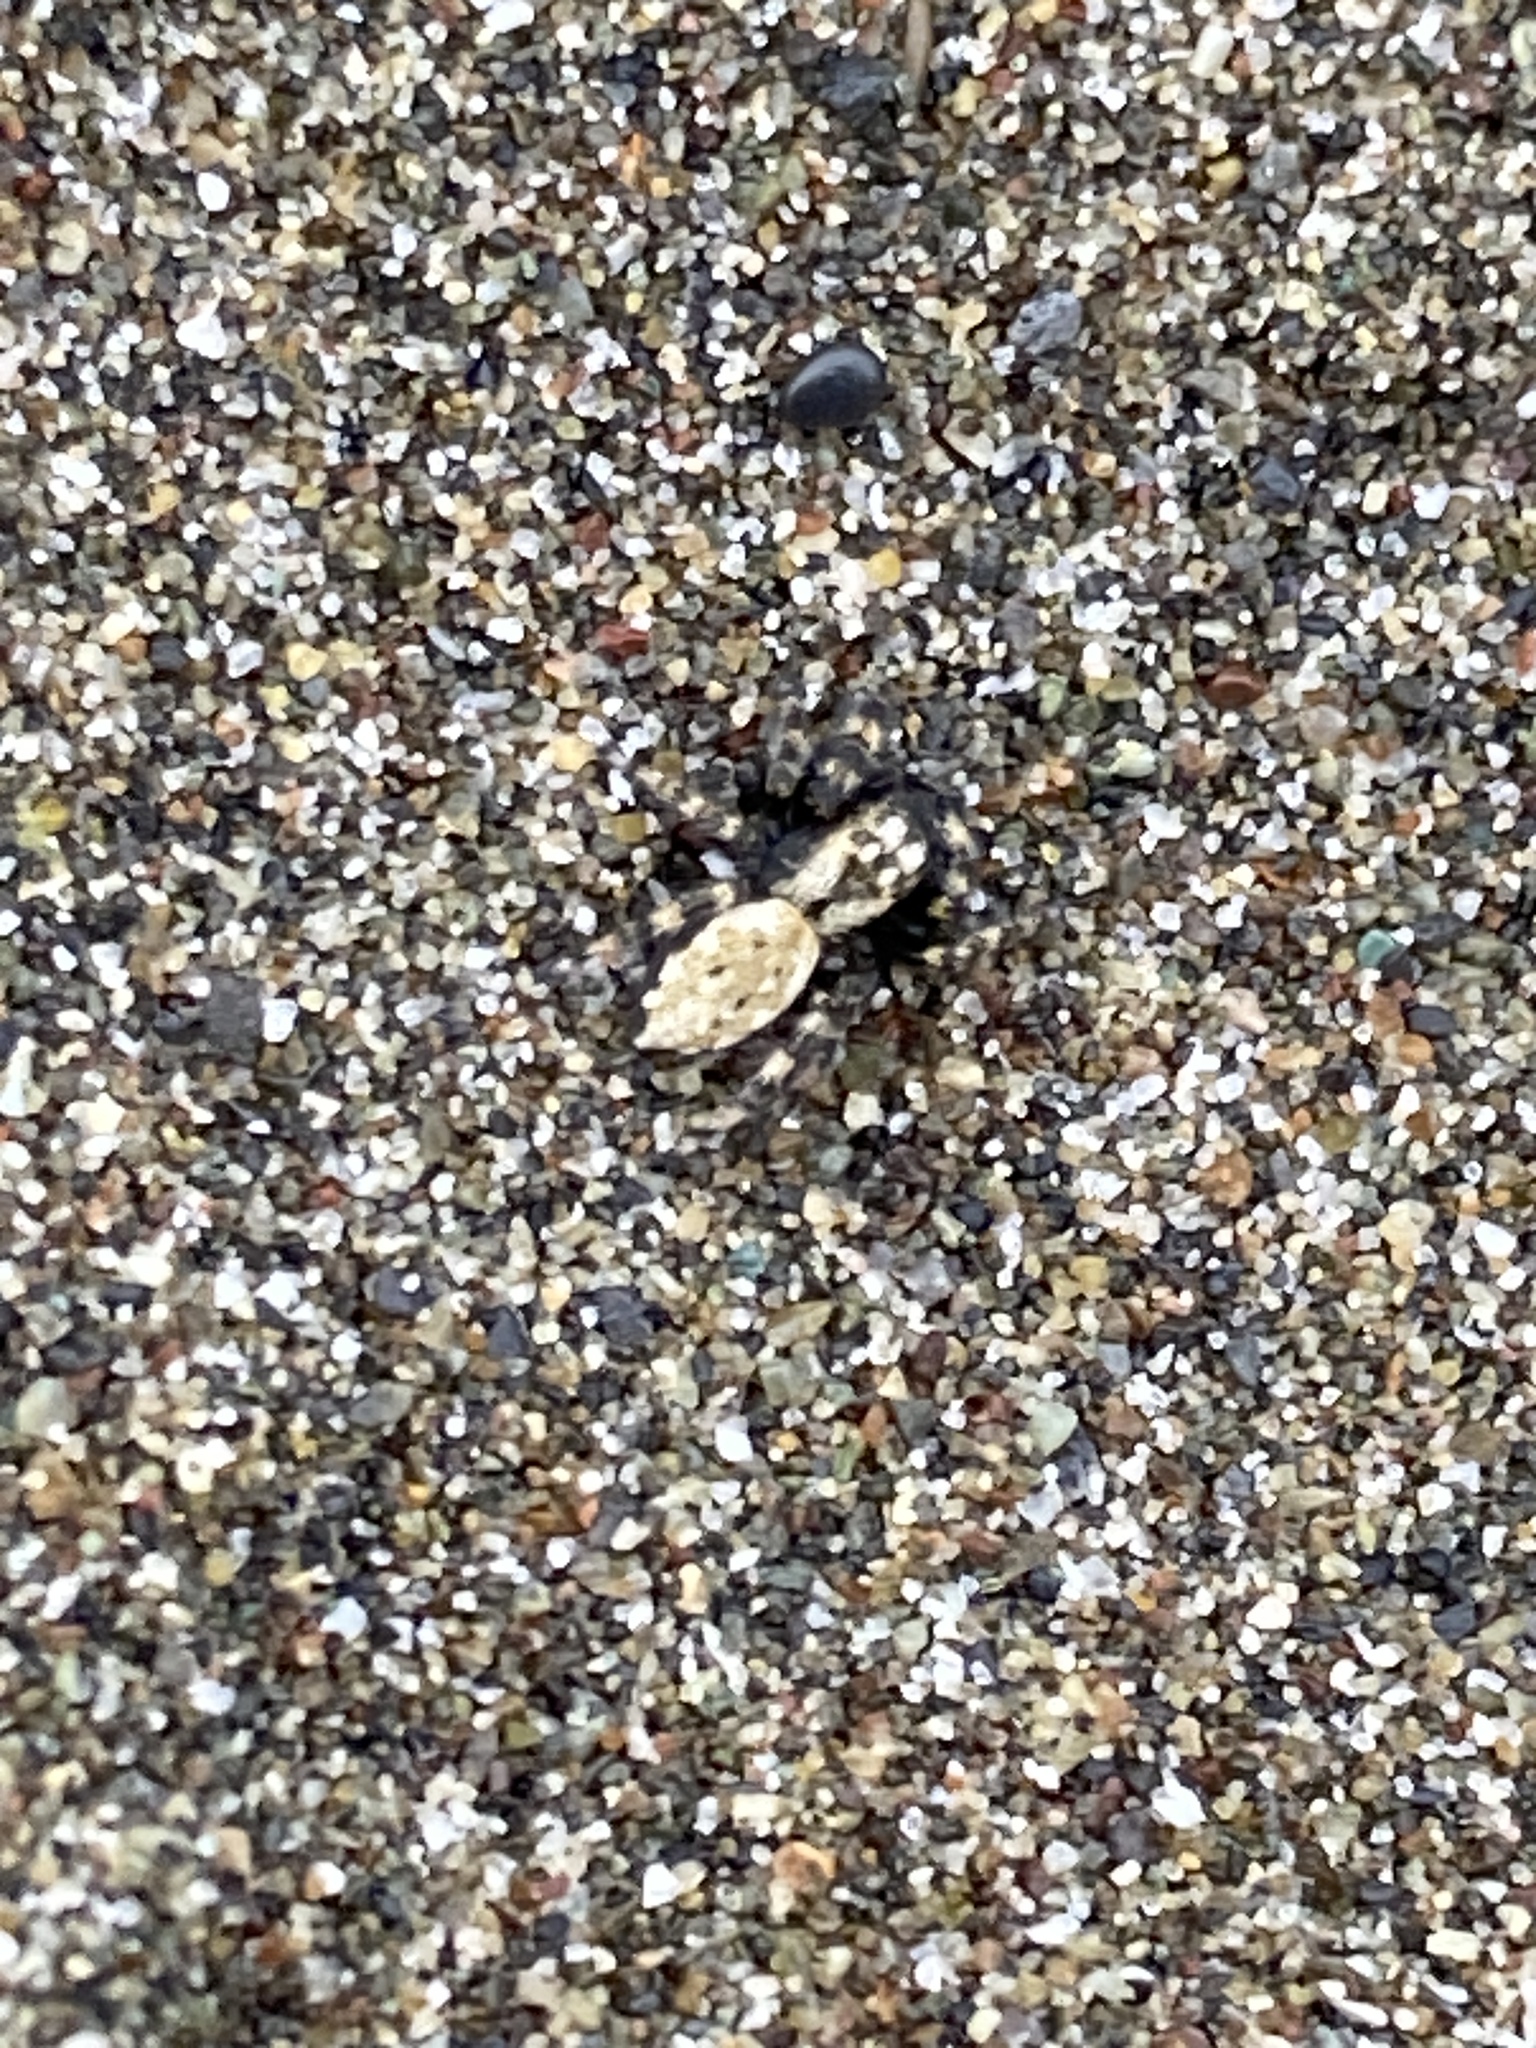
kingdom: Animalia
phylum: Arthropoda
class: Arachnida
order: Araneae
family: Salticidae
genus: Terralonus
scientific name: Terralonus californicus
